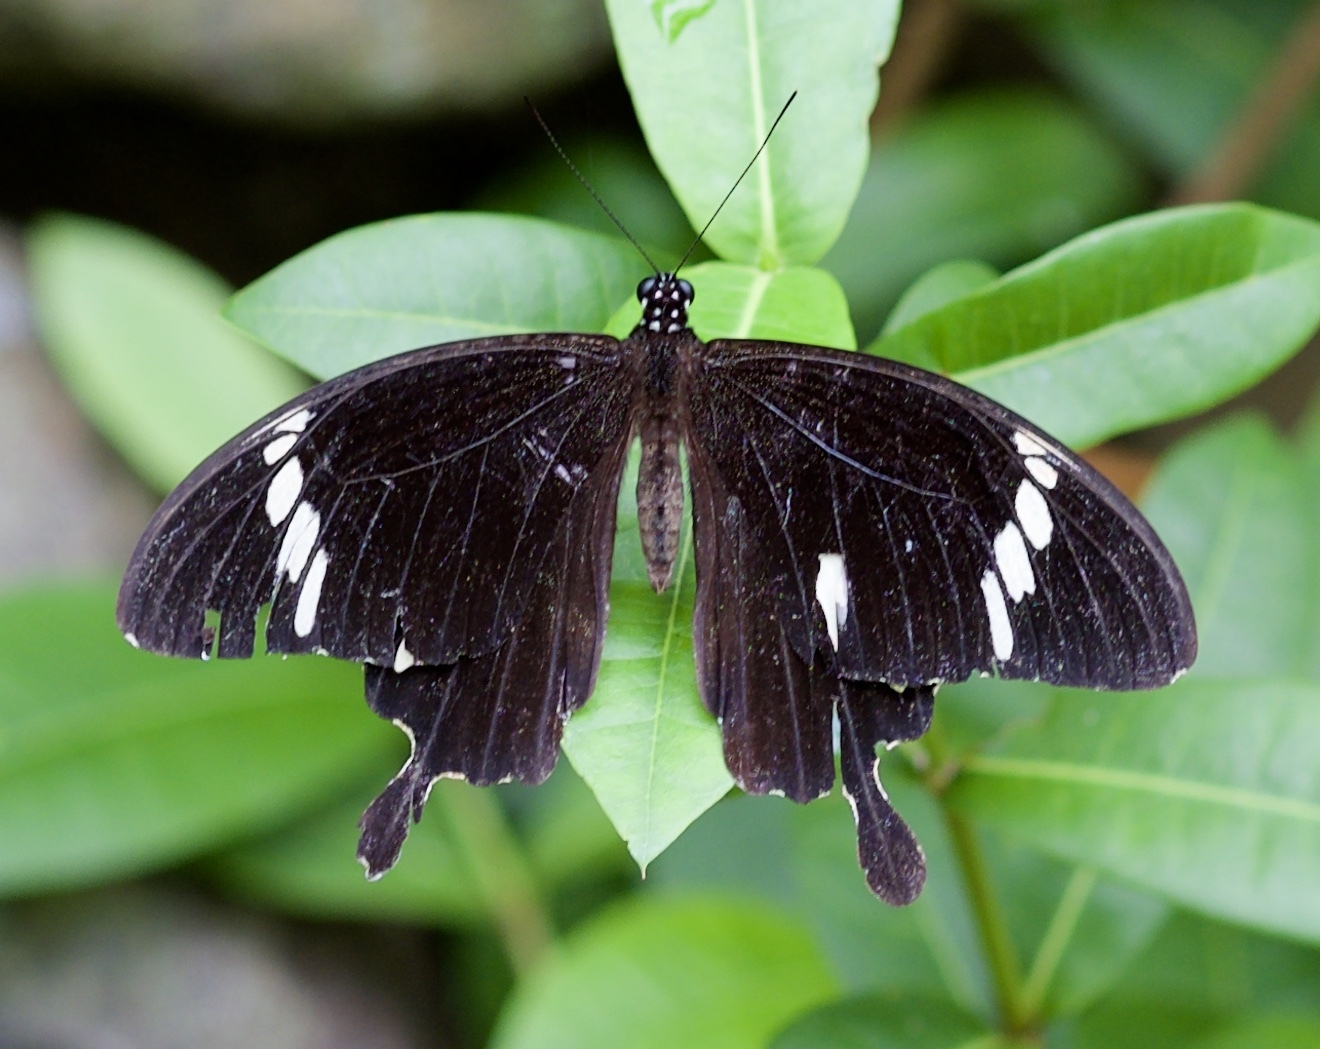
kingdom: Animalia
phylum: Arthropoda
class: Insecta
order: Lepidoptera
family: Papilionidae
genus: Papilio
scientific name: Papilio nephelus
